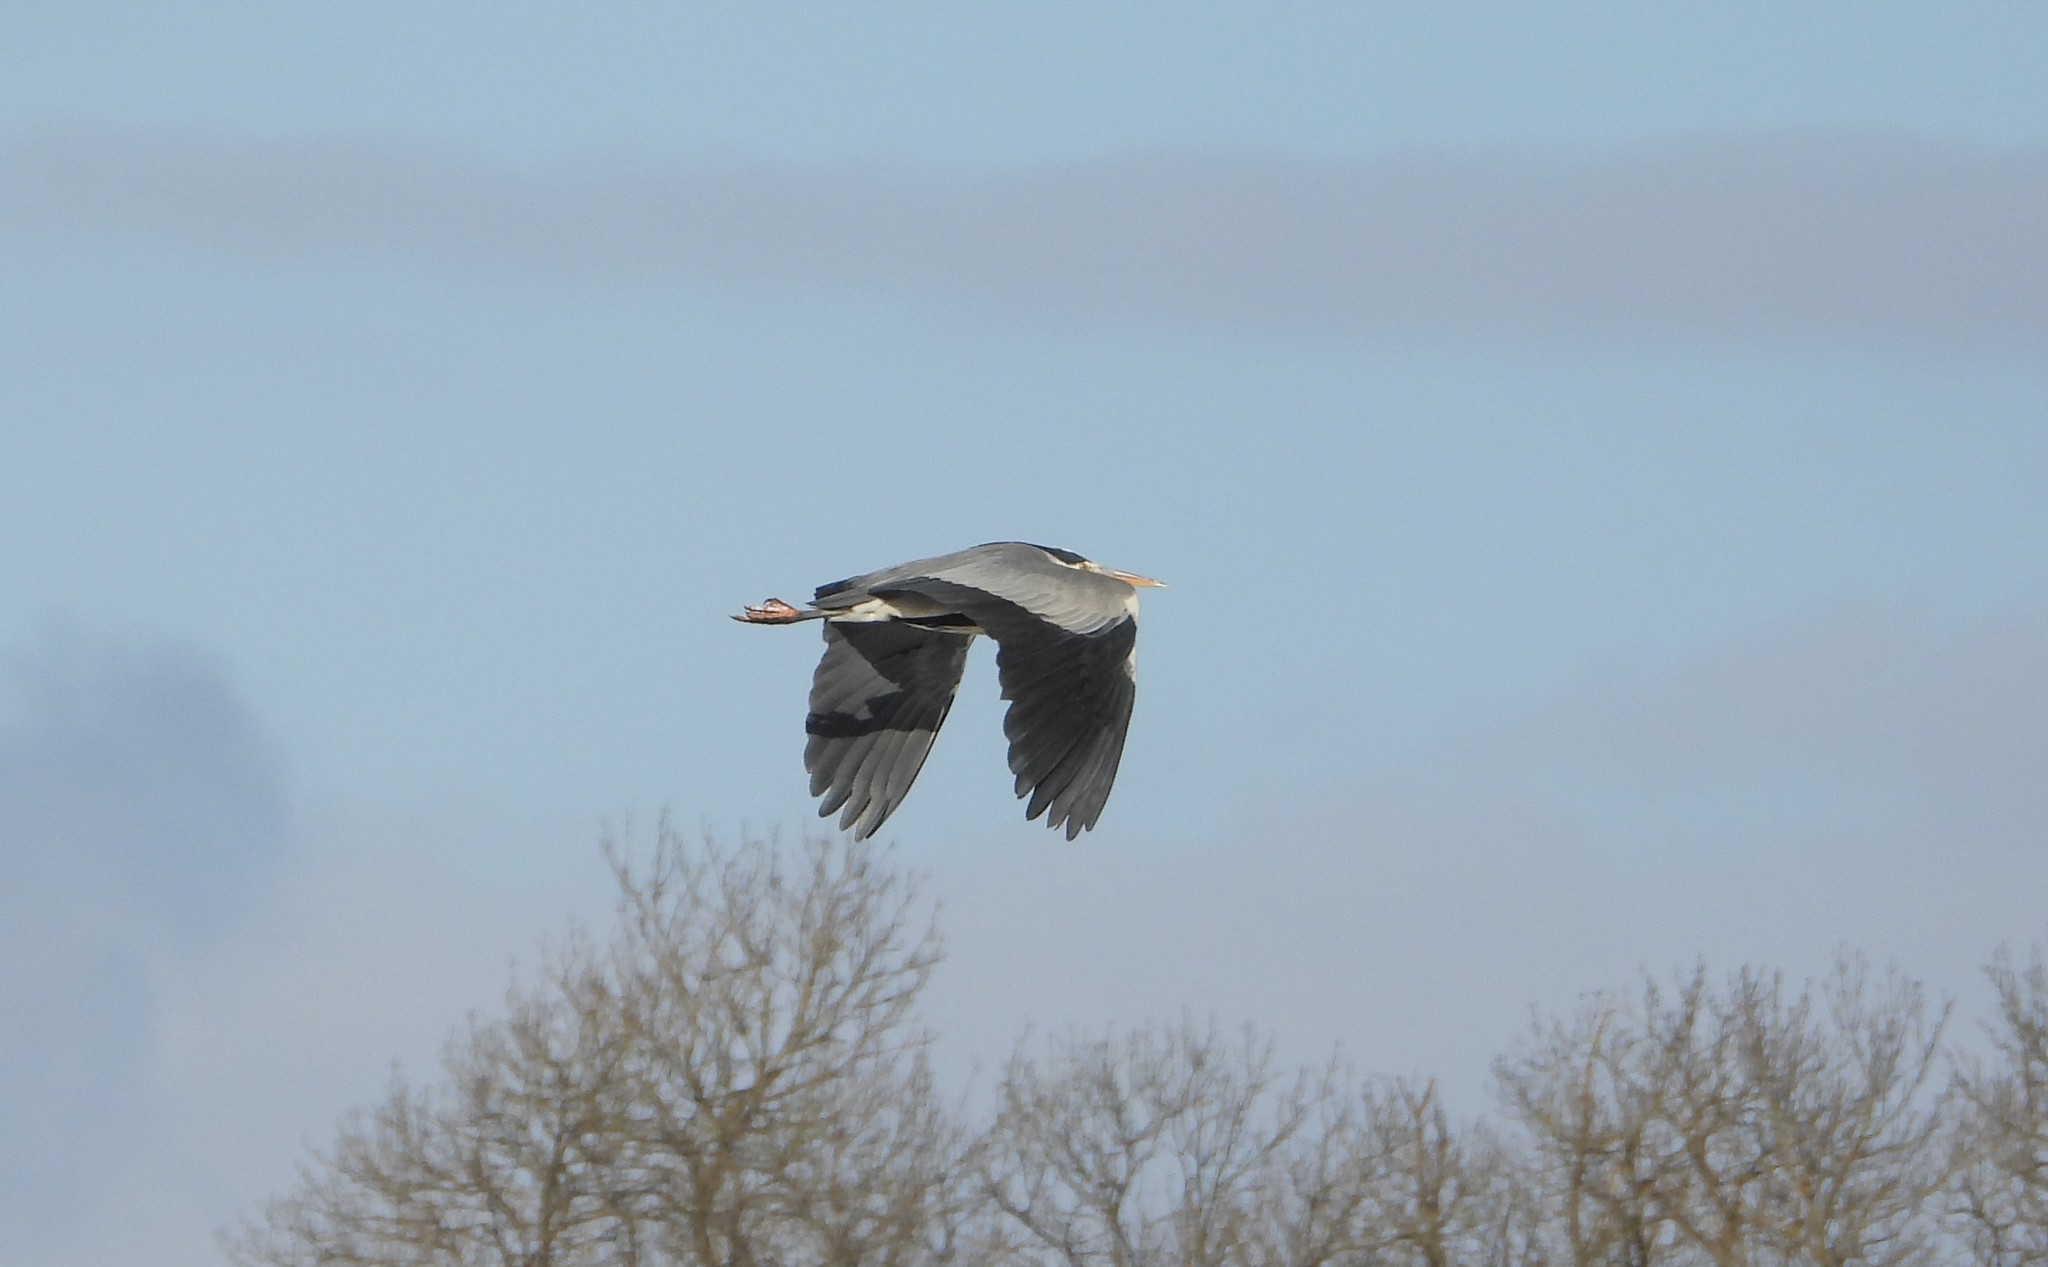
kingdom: Animalia
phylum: Chordata
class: Aves
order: Pelecaniformes
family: Ardeidae
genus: Ardea
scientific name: Ardea cinerea
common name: Grey heron
